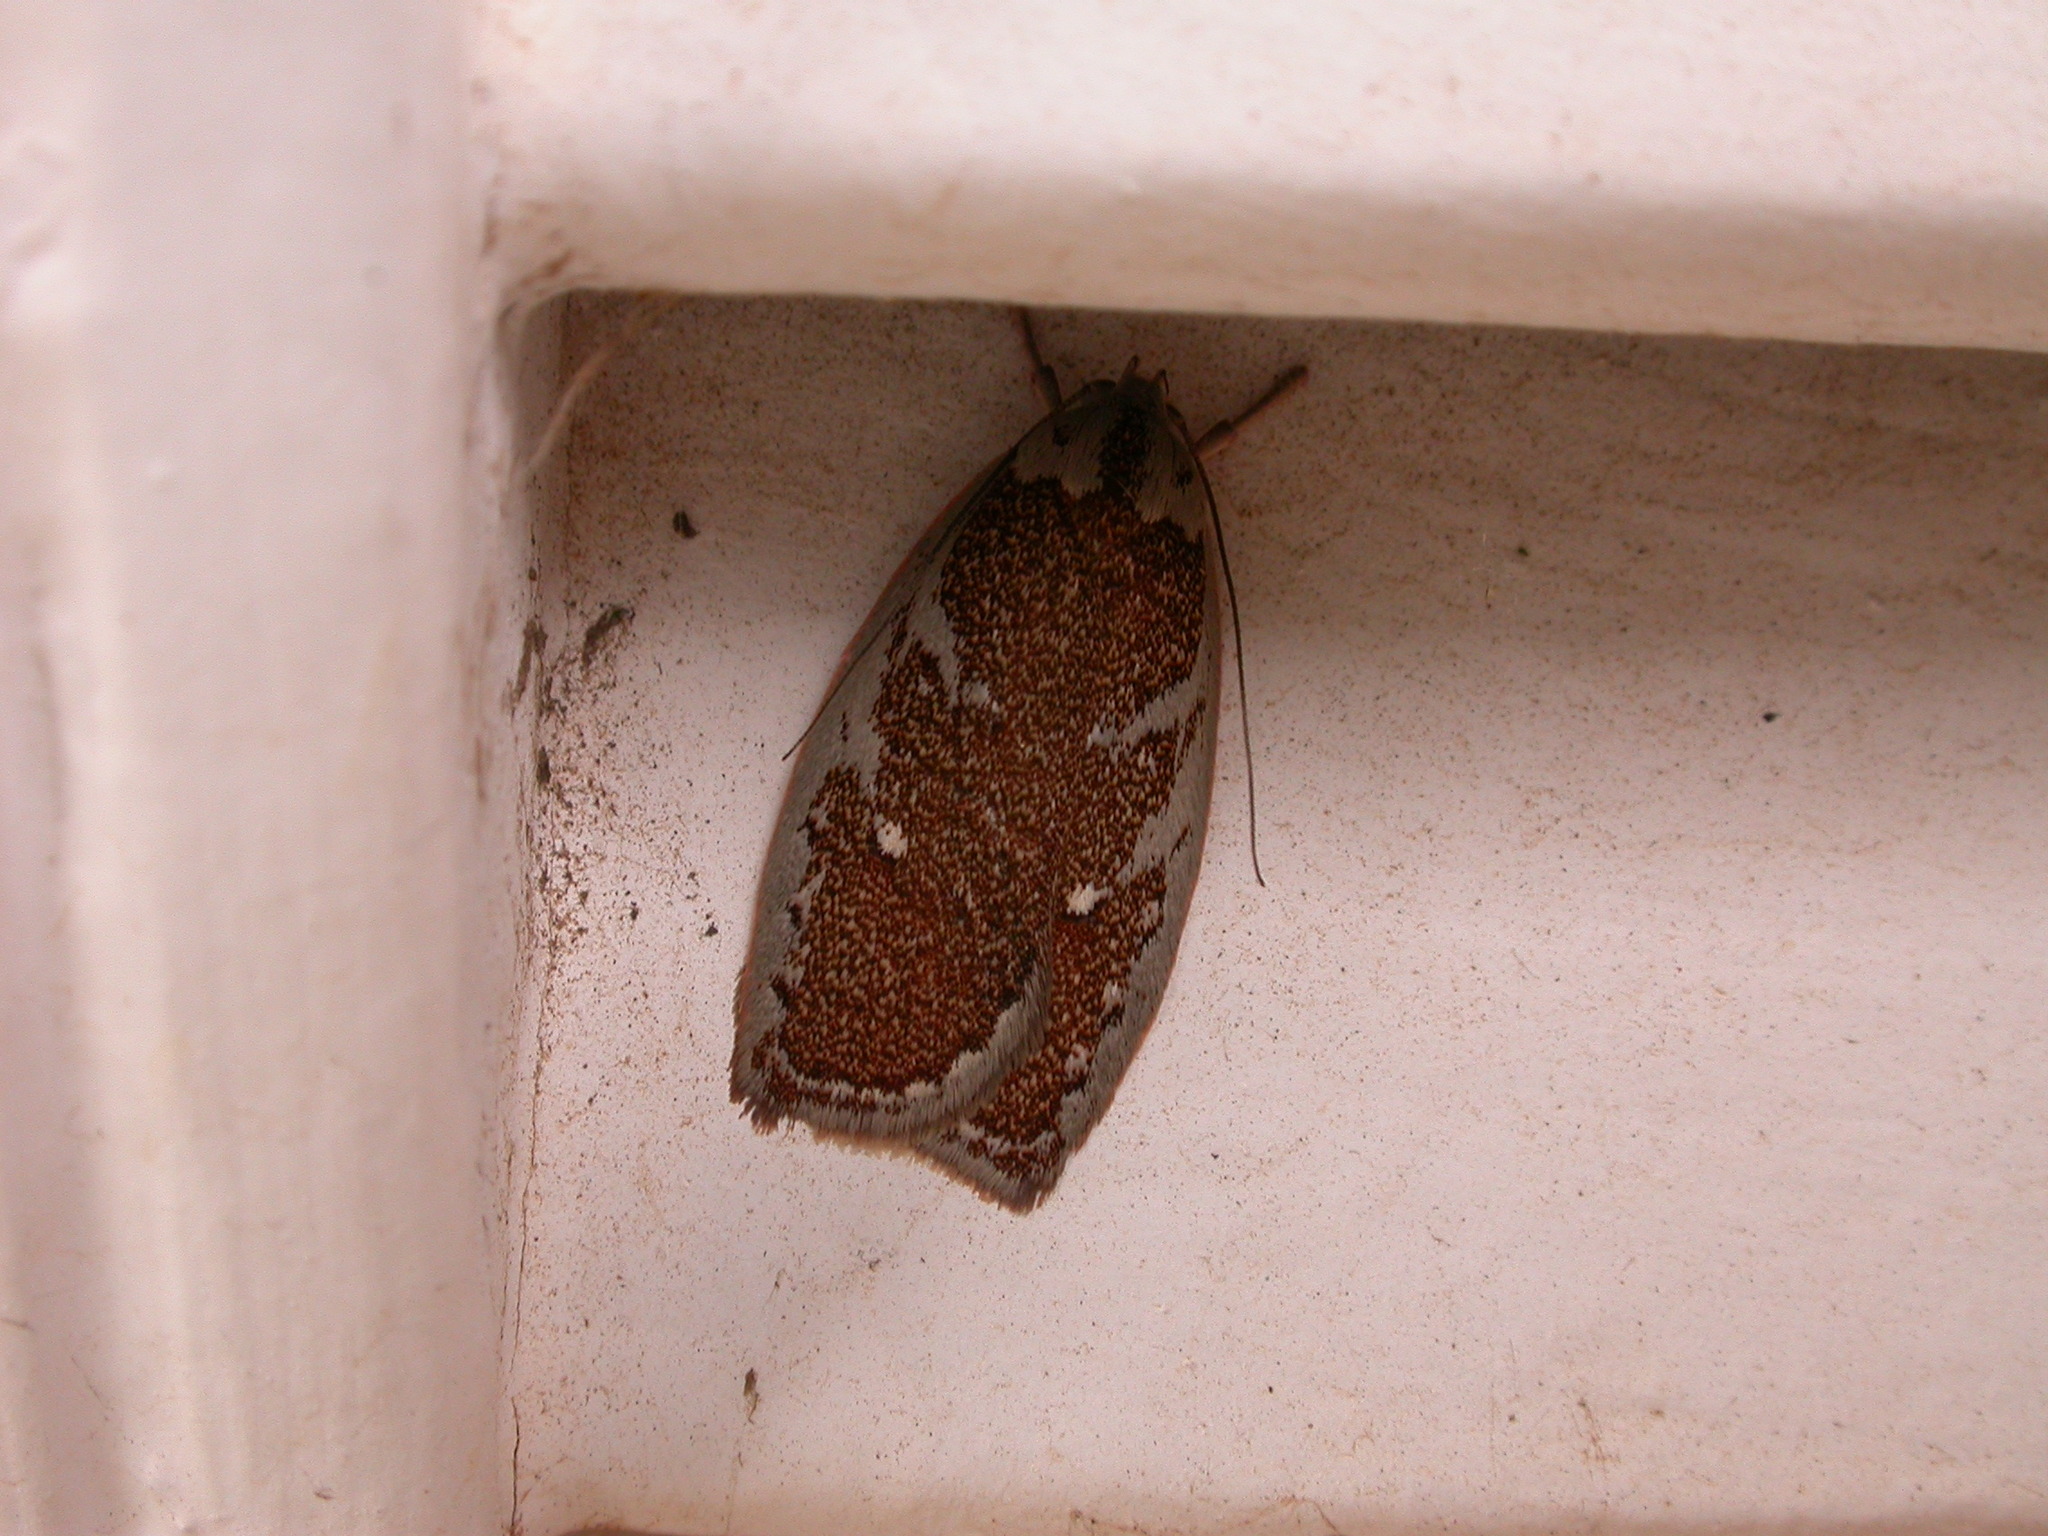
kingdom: Animalia
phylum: Arthropoda
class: Insecta
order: Lepidoptera
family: Oecophoridae
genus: Euchaetis
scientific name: Euchaetis rhizobola
